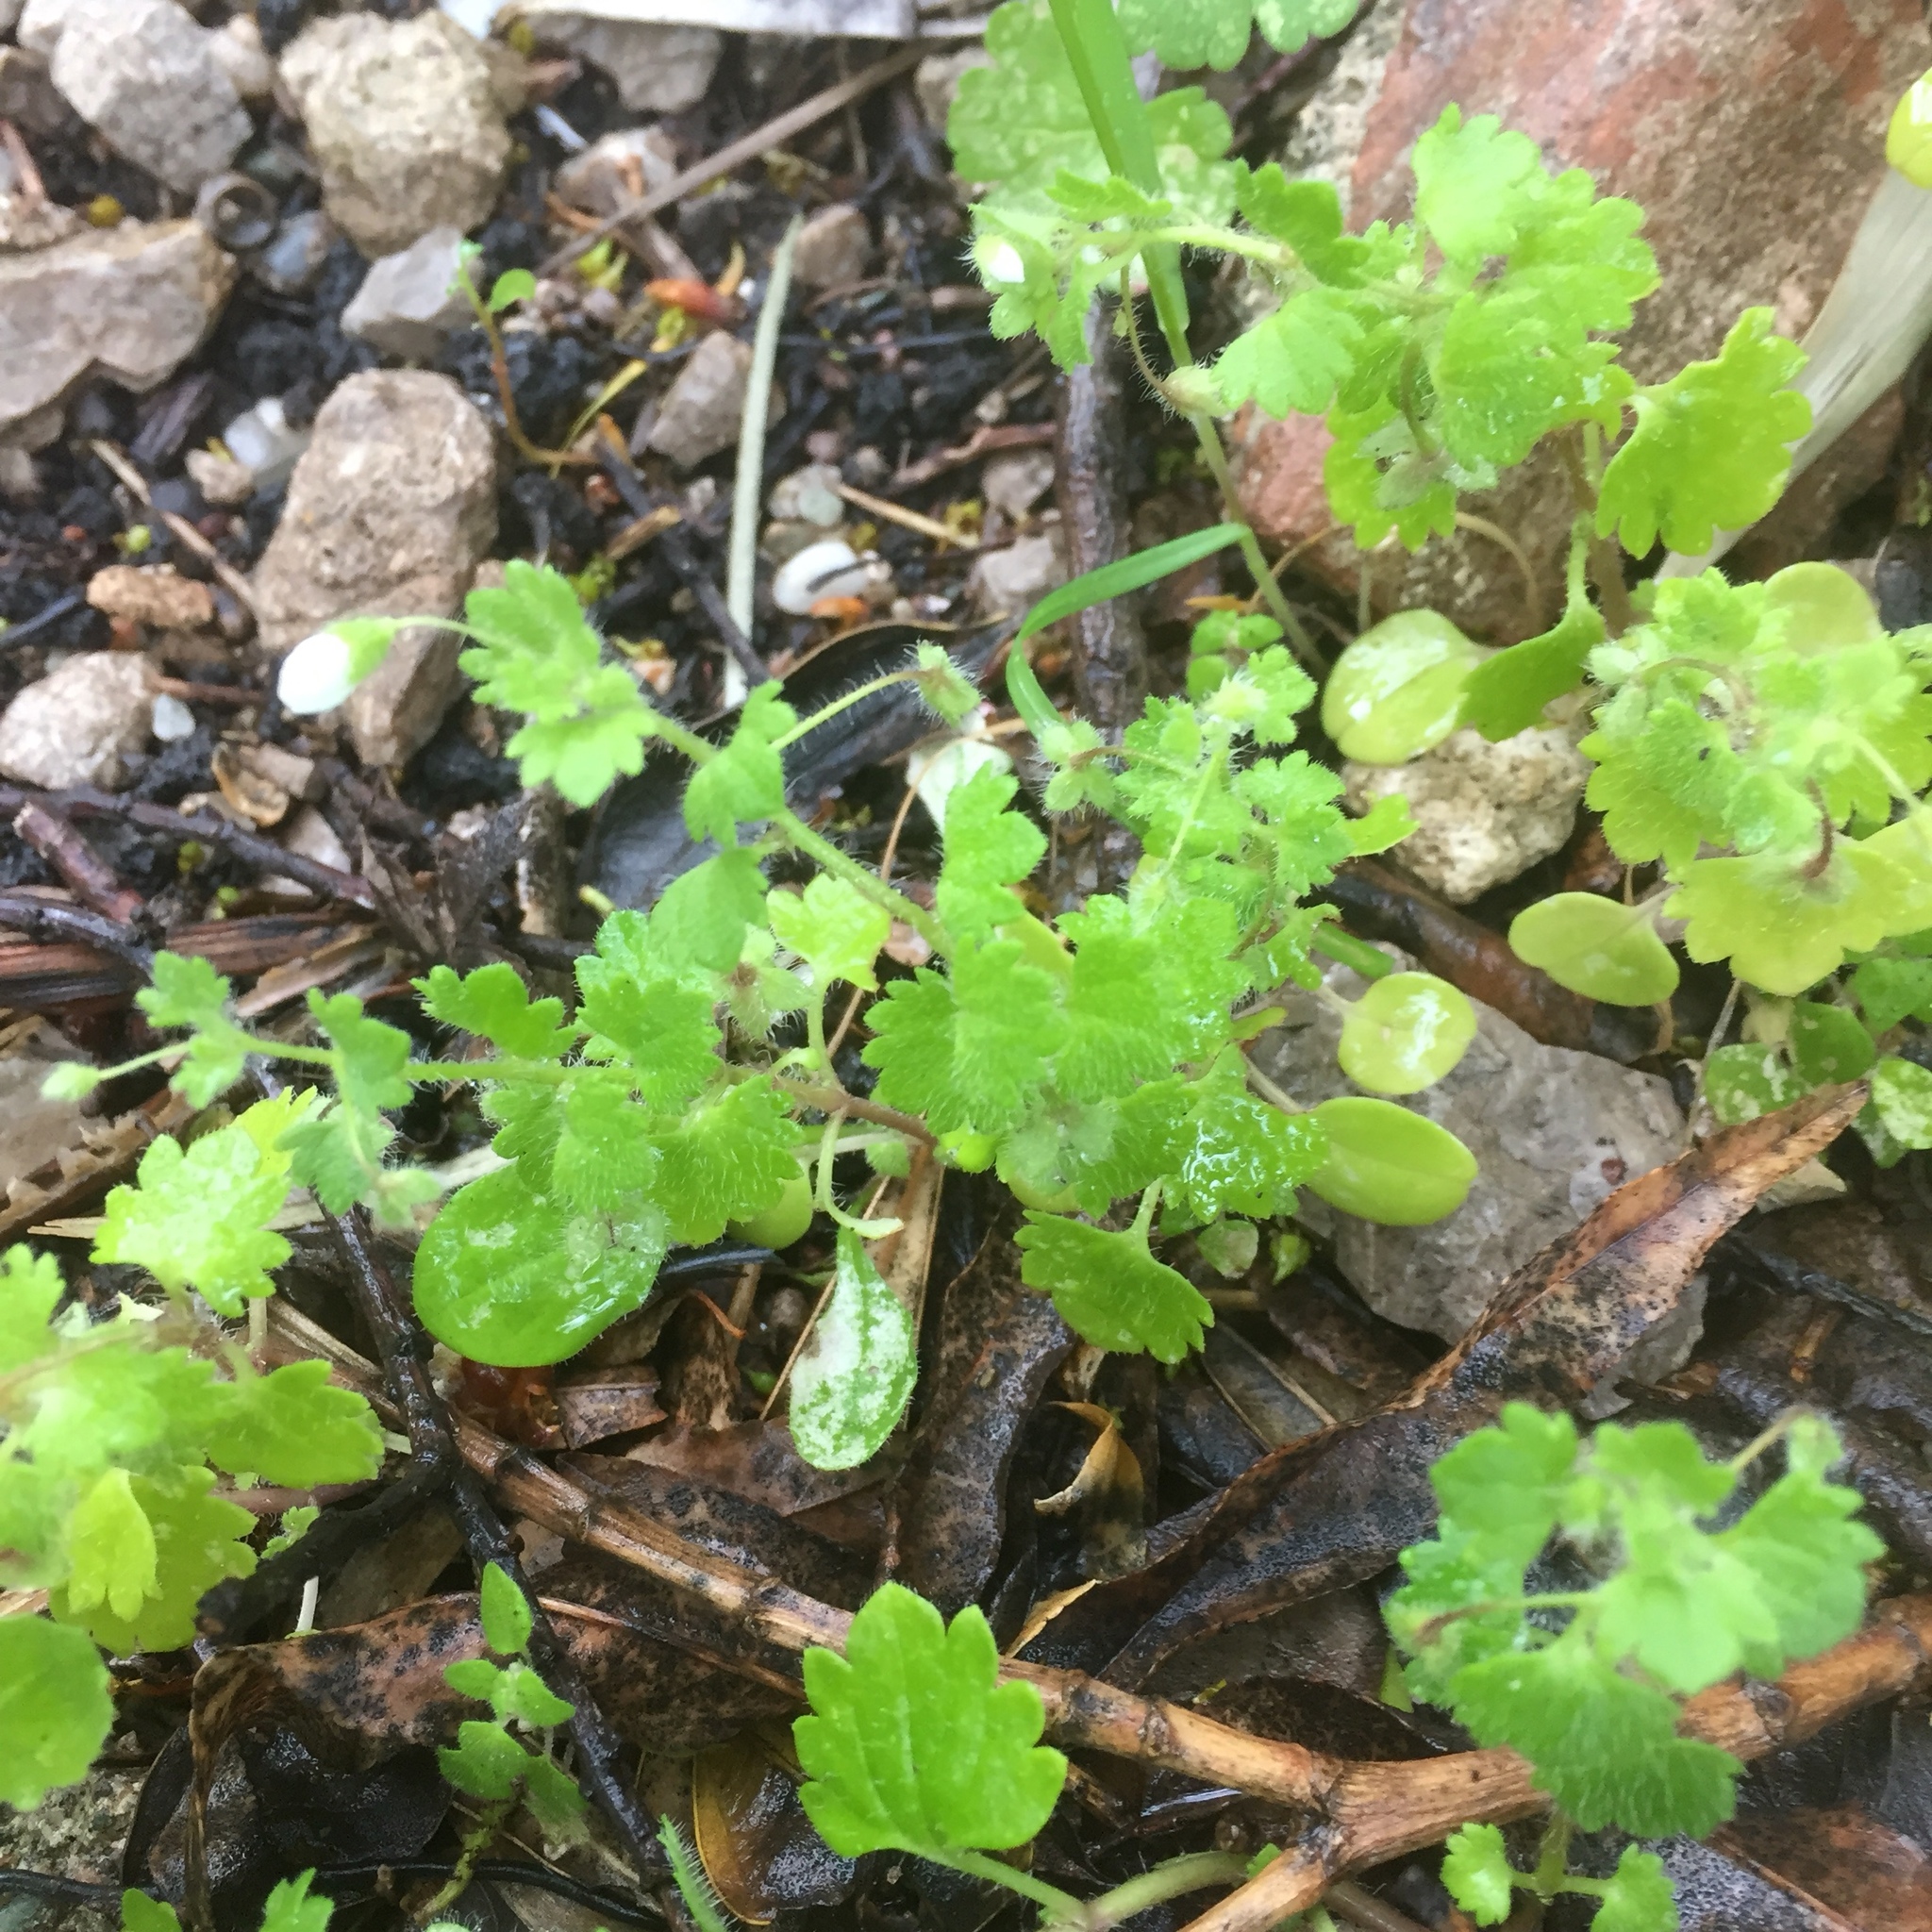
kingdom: Plantae
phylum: Tracheophyta
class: Magnoliopsida
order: Lamiales
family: Plantaginaceae
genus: Veronica
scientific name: Veronica cymbalaria
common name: Pale speedwell
